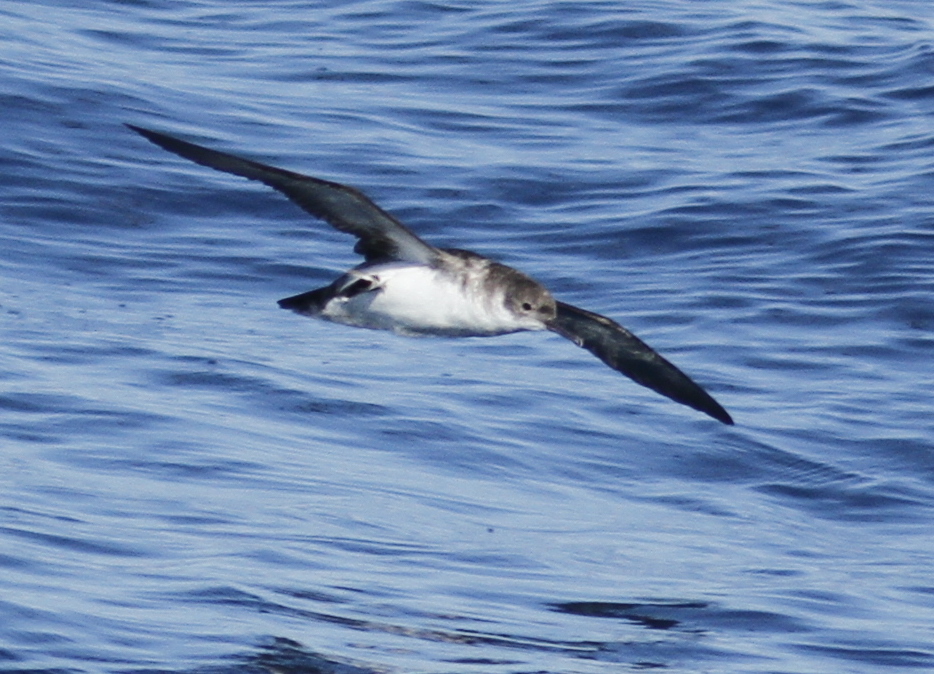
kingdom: Animalia
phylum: Chordata
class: Aves
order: Procellariiformes
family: Procellariidae
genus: Puffinus
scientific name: Puffinus yelkouan
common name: Yelkouan shearwater
